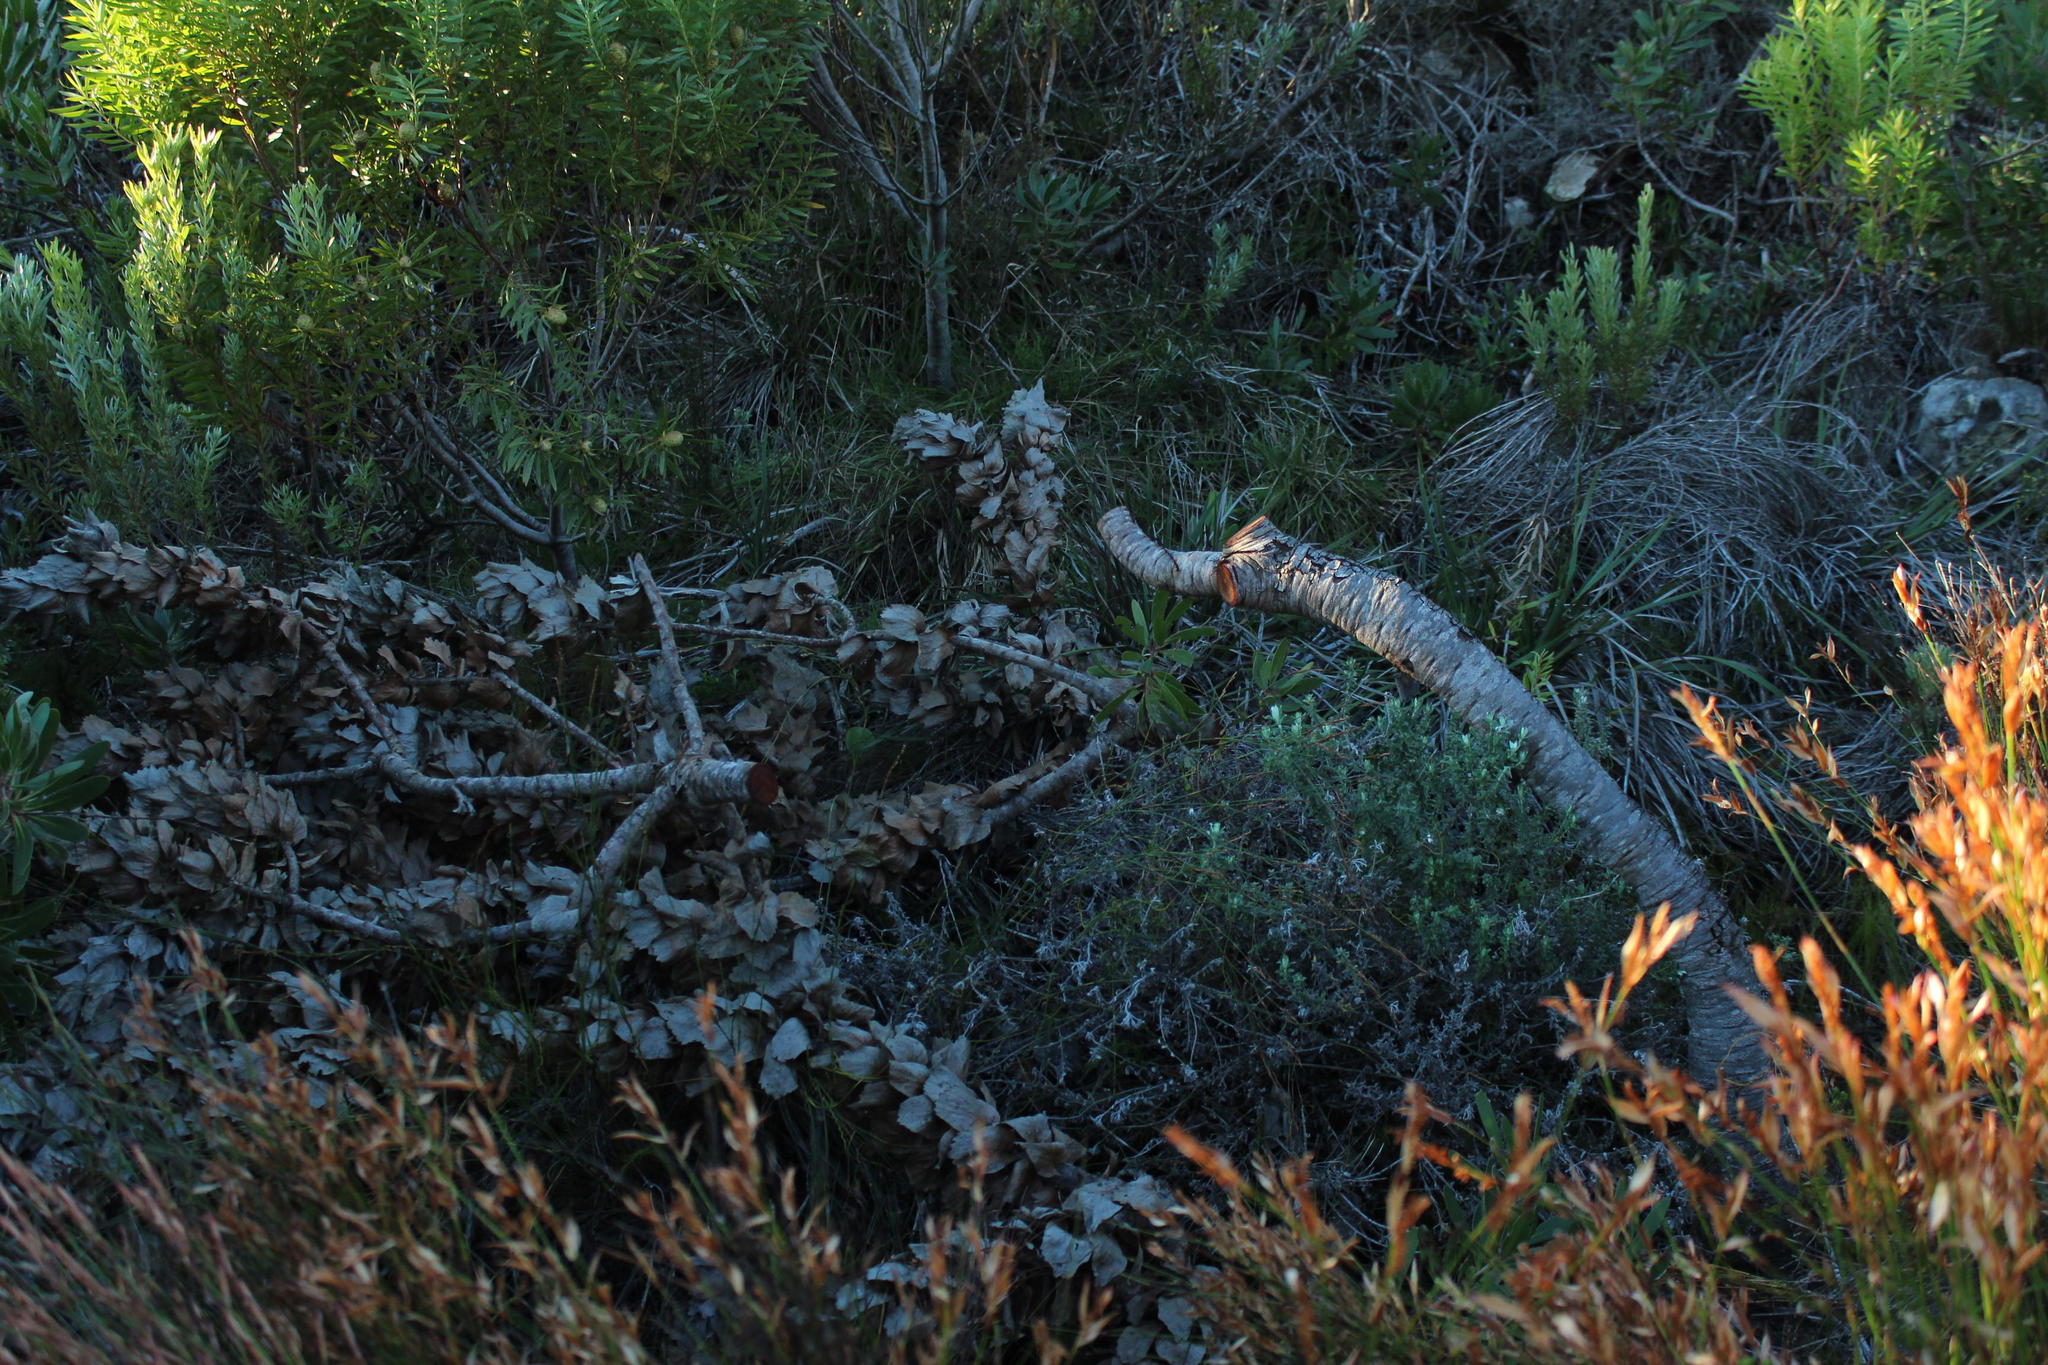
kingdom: Plantae
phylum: Tracheophyta
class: Magnoliopsida
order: Proteales
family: Proteaceae
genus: Leucospermum
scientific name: Leucospermum patersonii
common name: False tree pincushion
